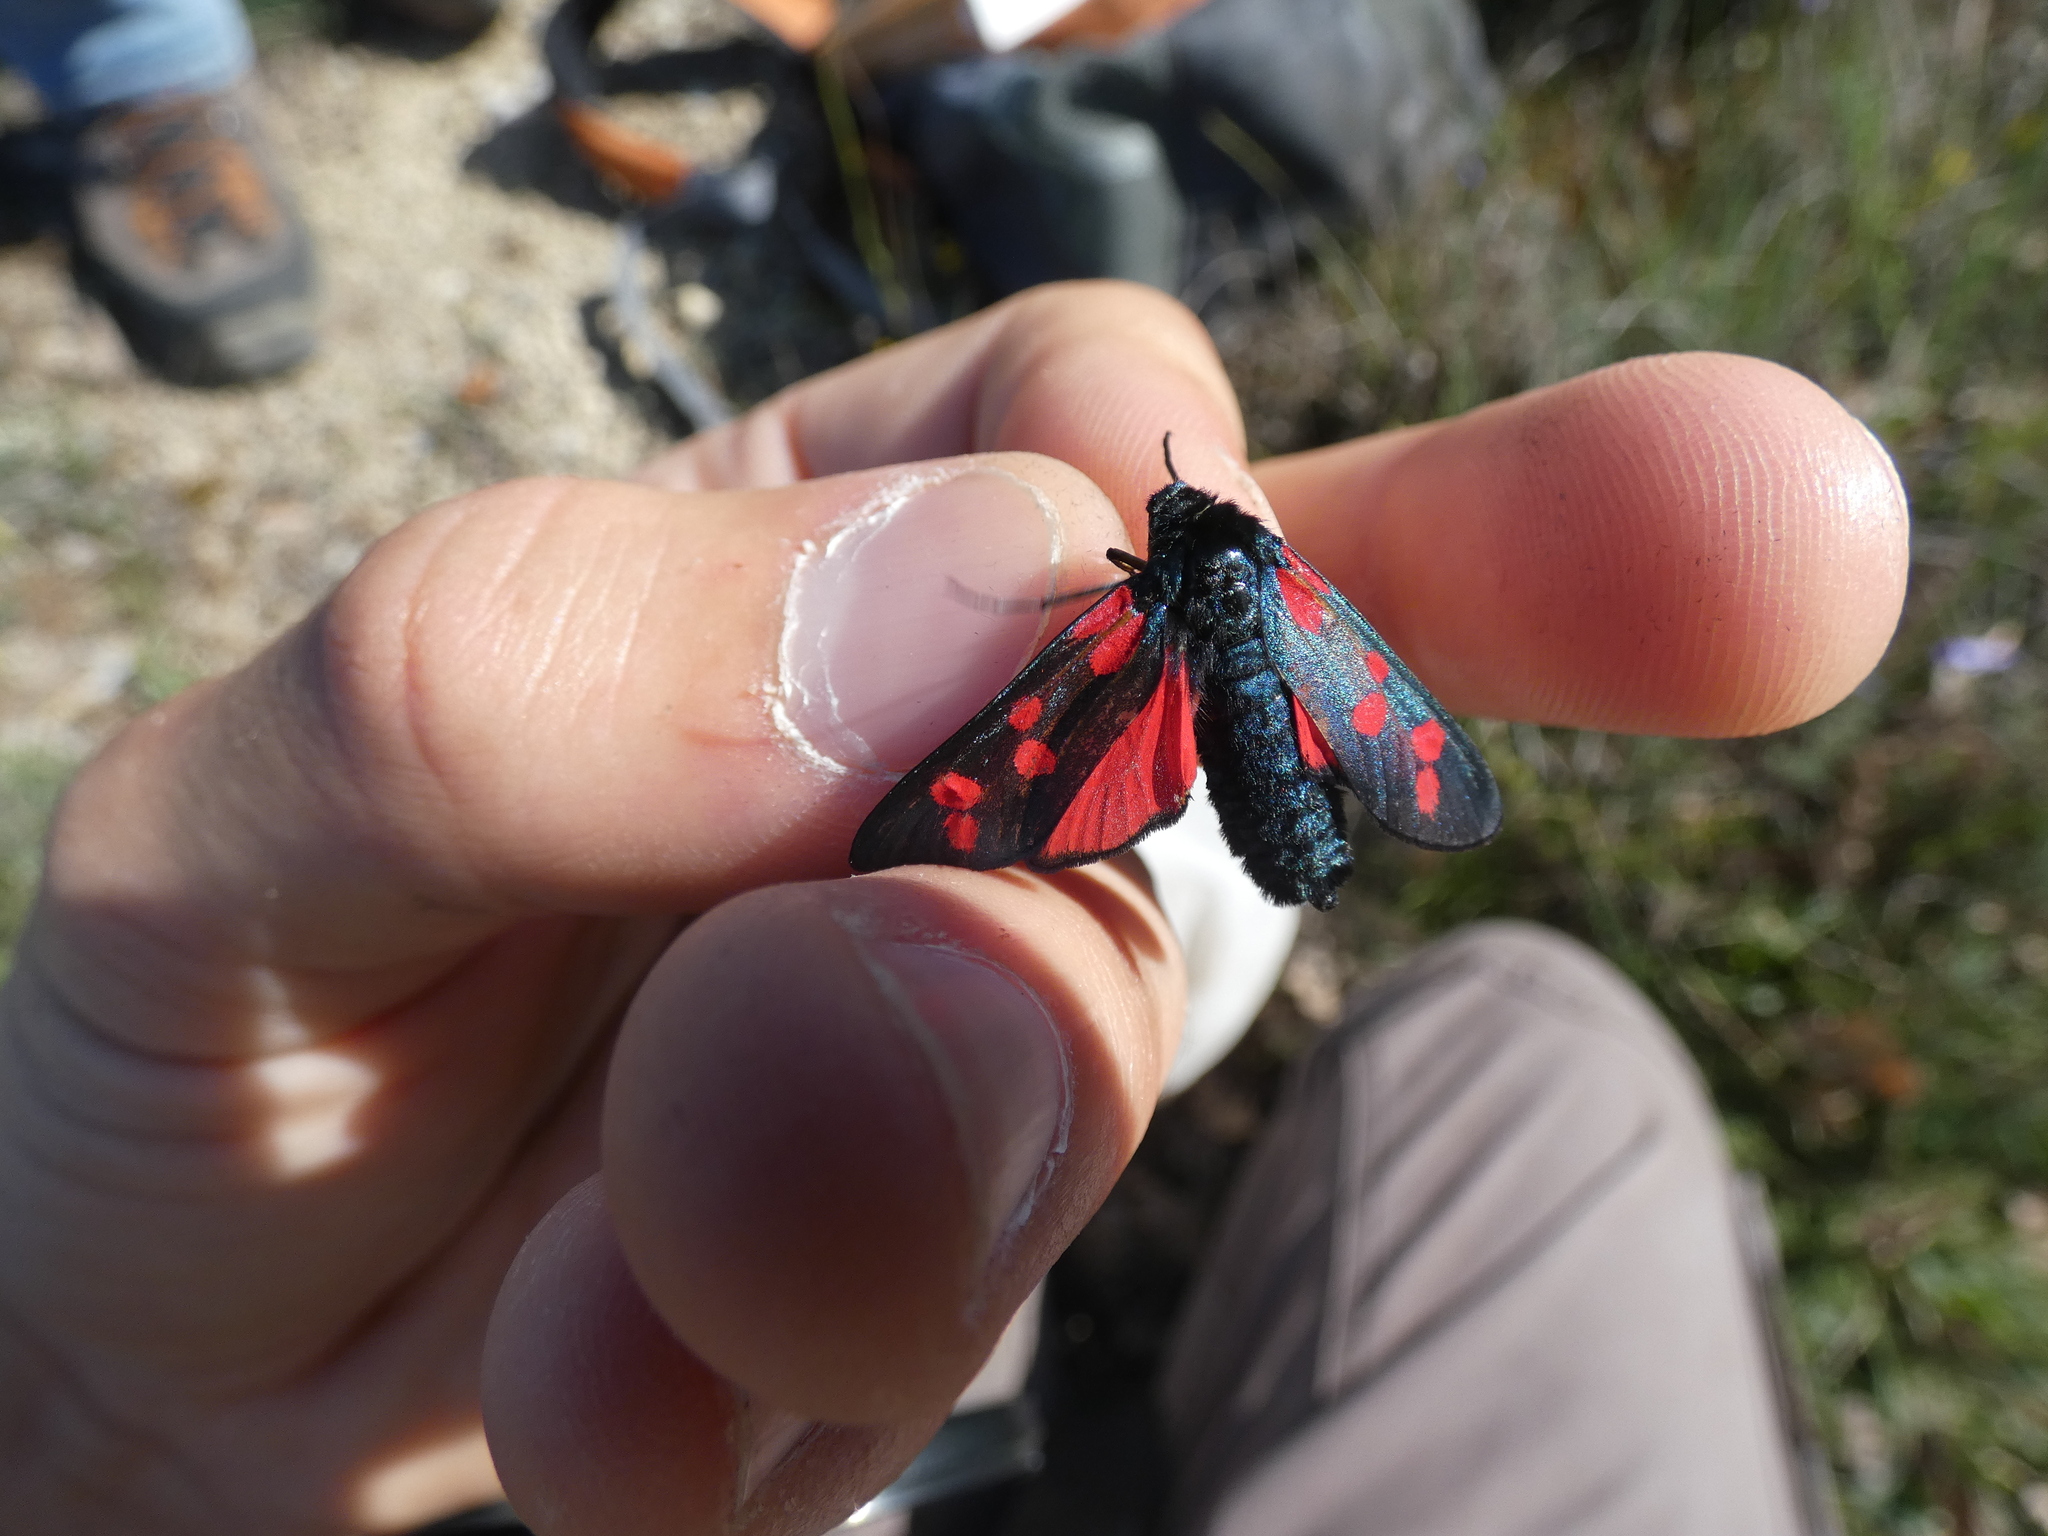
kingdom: Animalia
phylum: Arthropoda
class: Insecta
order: Lepidoptera
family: Zygaenidae
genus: Zygaena
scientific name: Zygaena filipendulae
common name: Six-spot burnet
